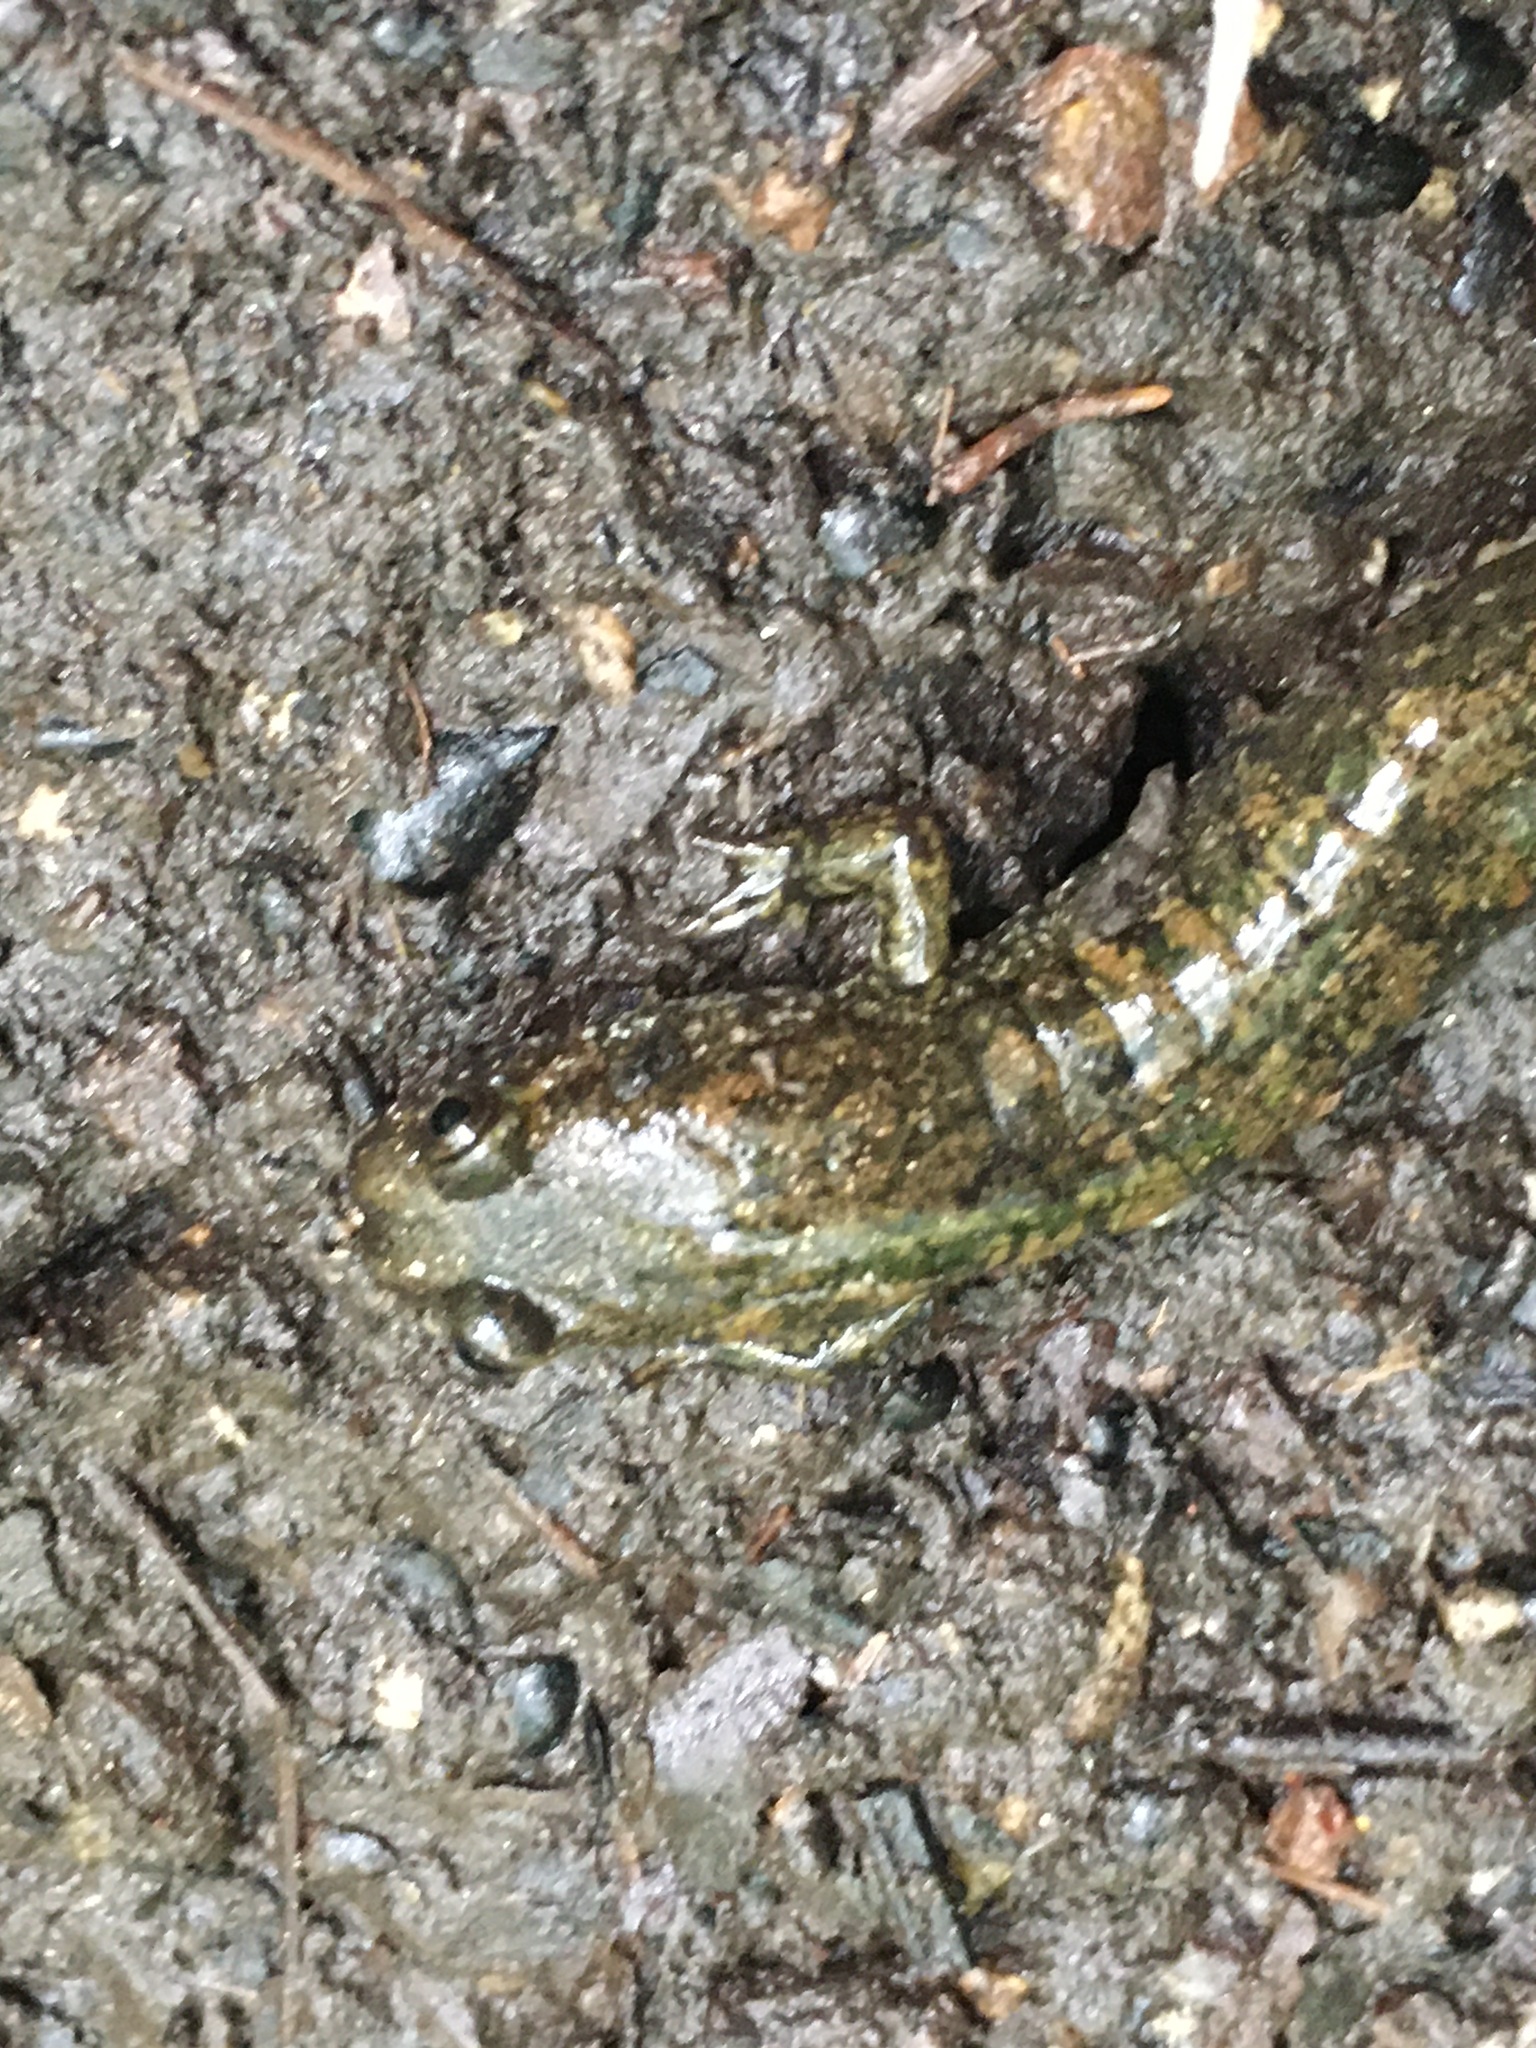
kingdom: Animalia
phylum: Chordata
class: Amphibia
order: Caudata
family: Plethodontidae
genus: Desmognathus
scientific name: Desmognathus
